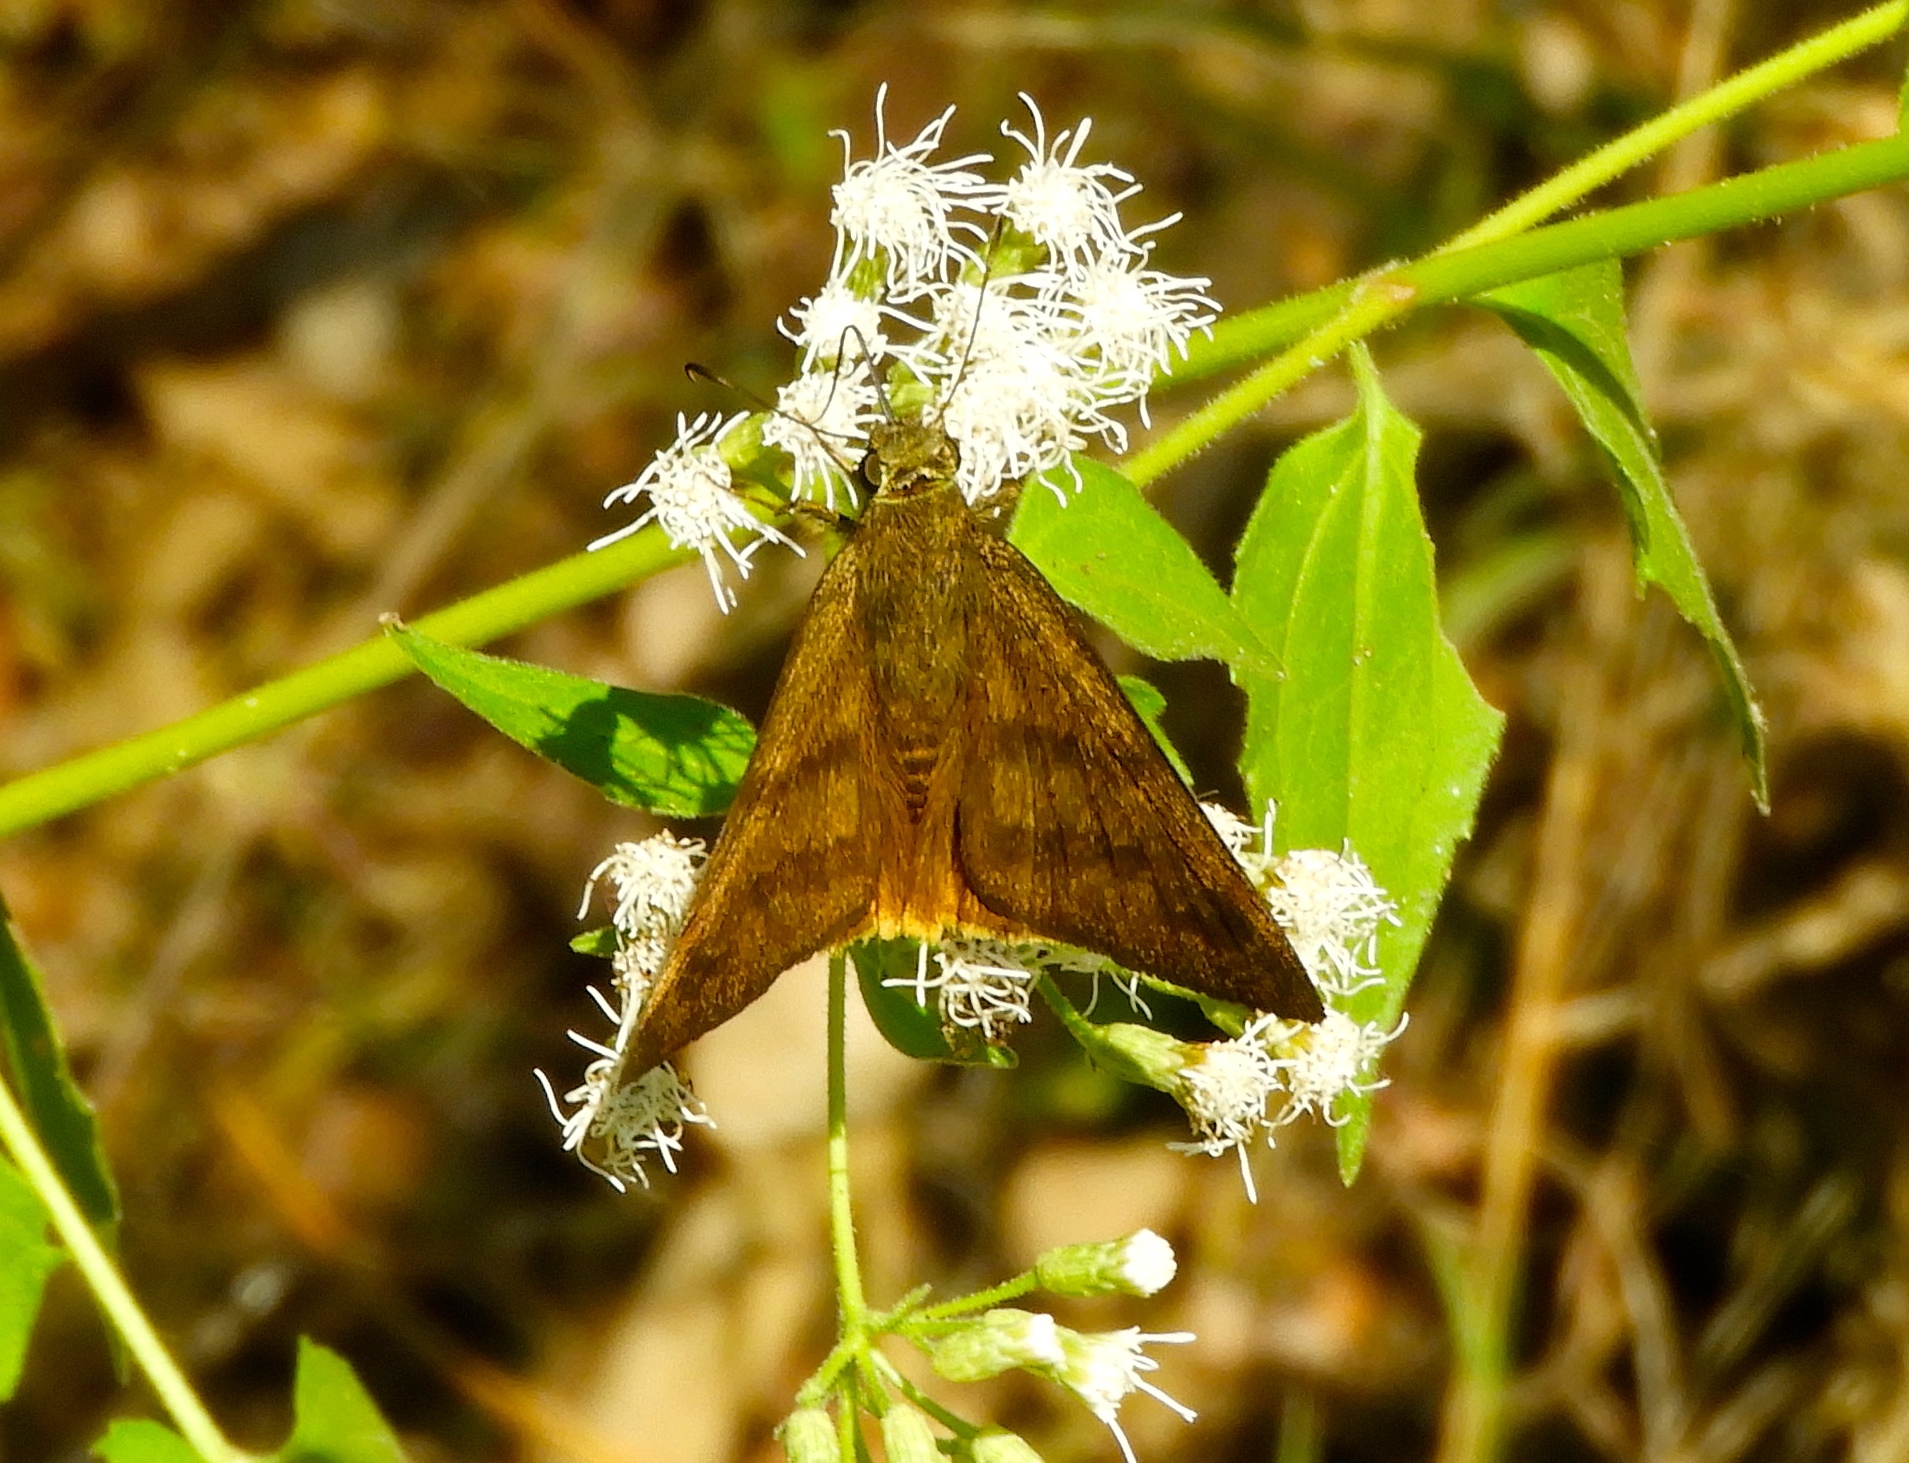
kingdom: Animalia
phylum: Arthropoda
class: Insecta
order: Lepidoptera
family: Hesperiidae
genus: Astraptes
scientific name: Astraptes anaphus
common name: Yellow-tipped flasher
